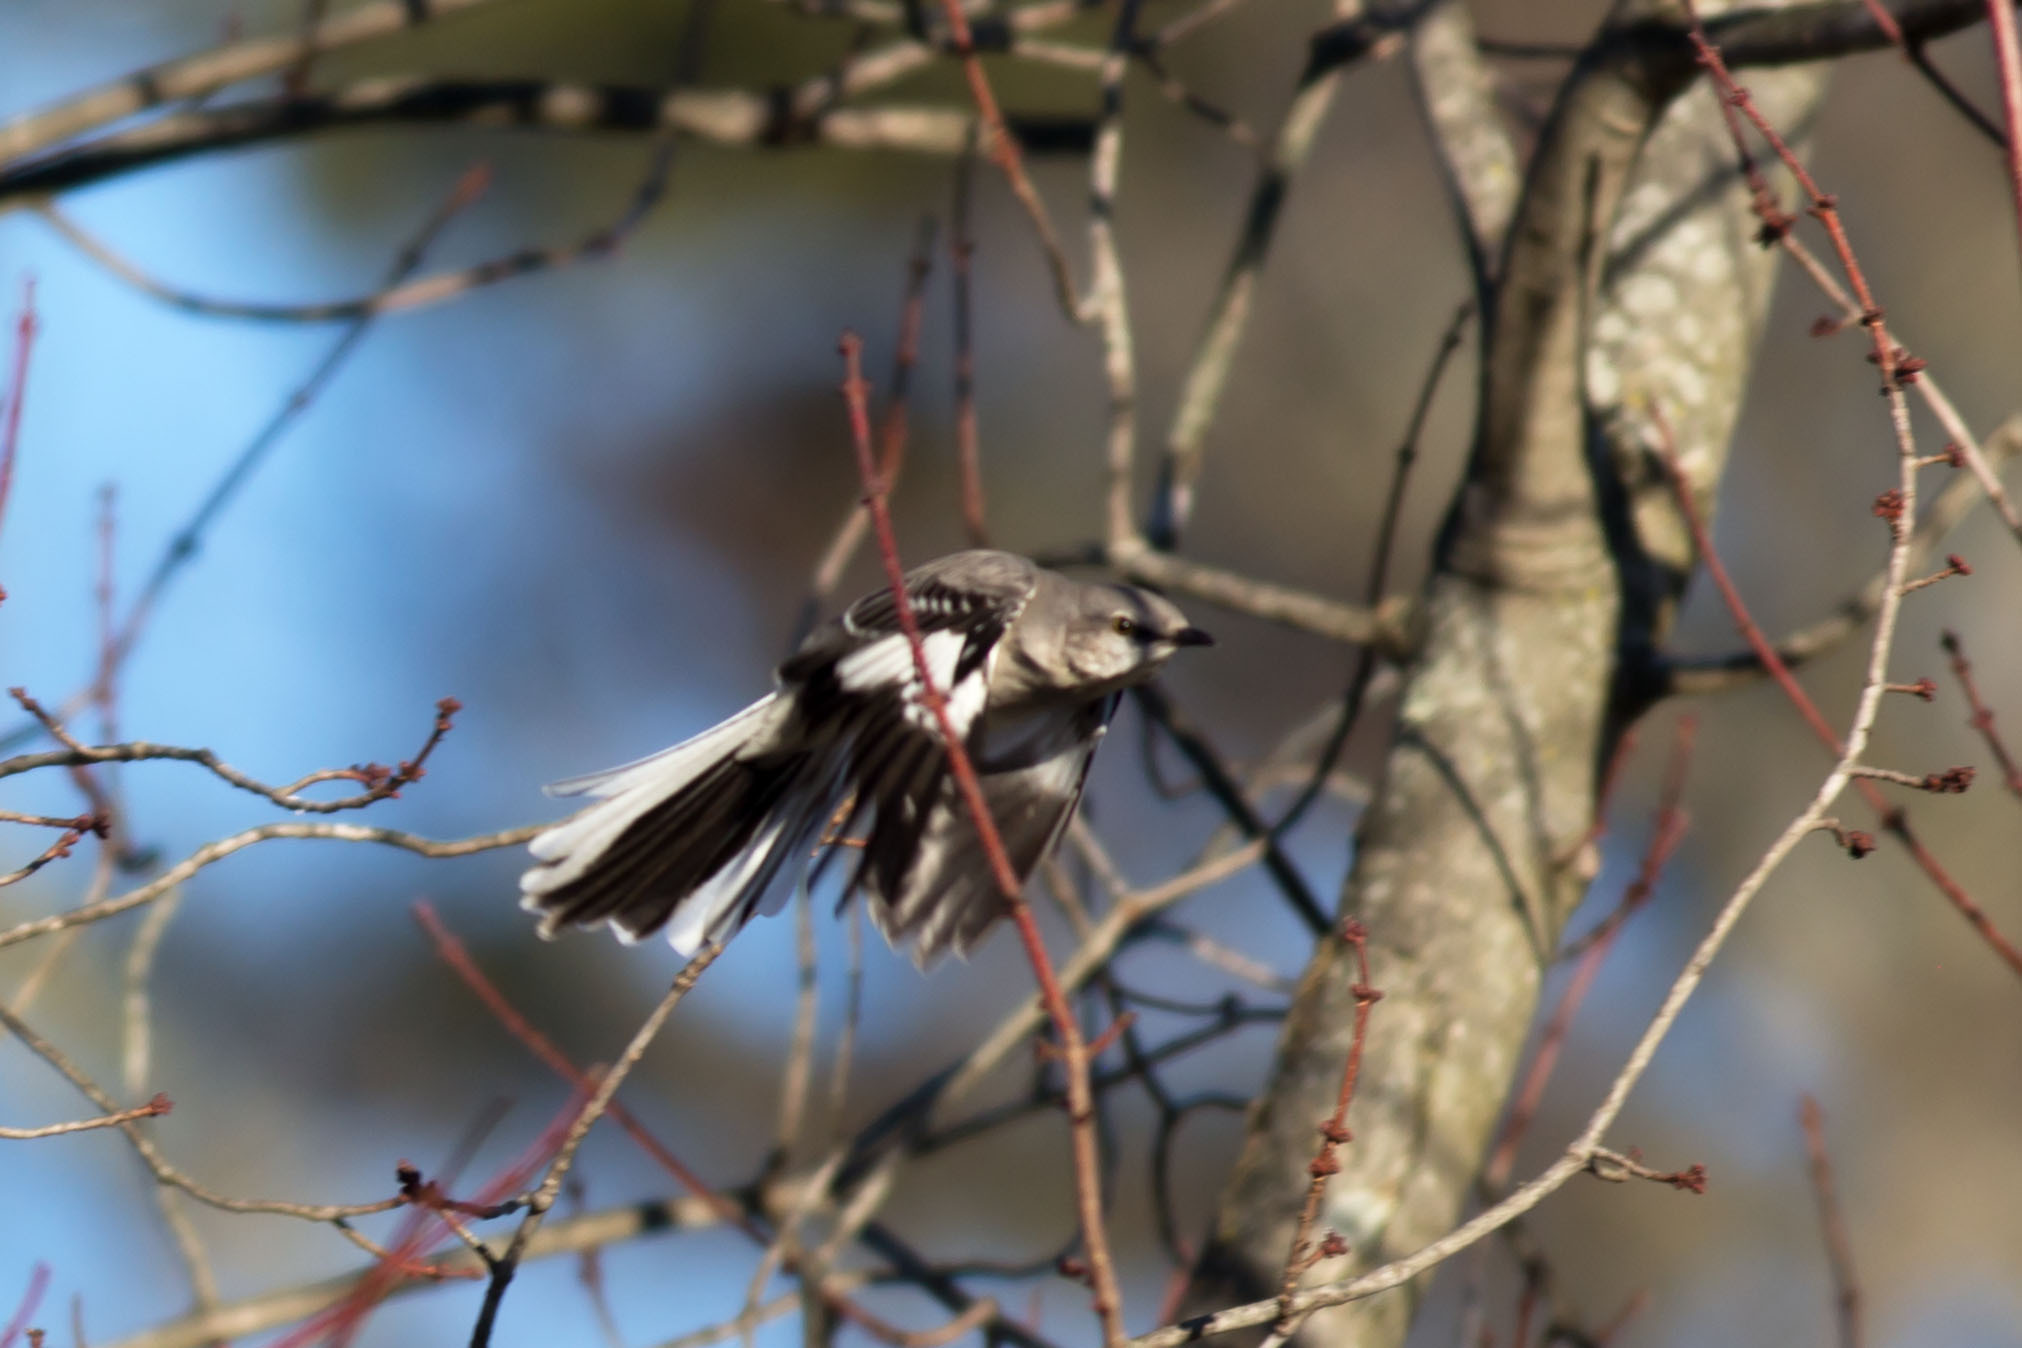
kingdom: Animalia
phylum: Chordata
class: Aves
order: Passeriformes
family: Mimidae
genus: Mimus
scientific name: Mimus polyglottos
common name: Northern mockingbird
